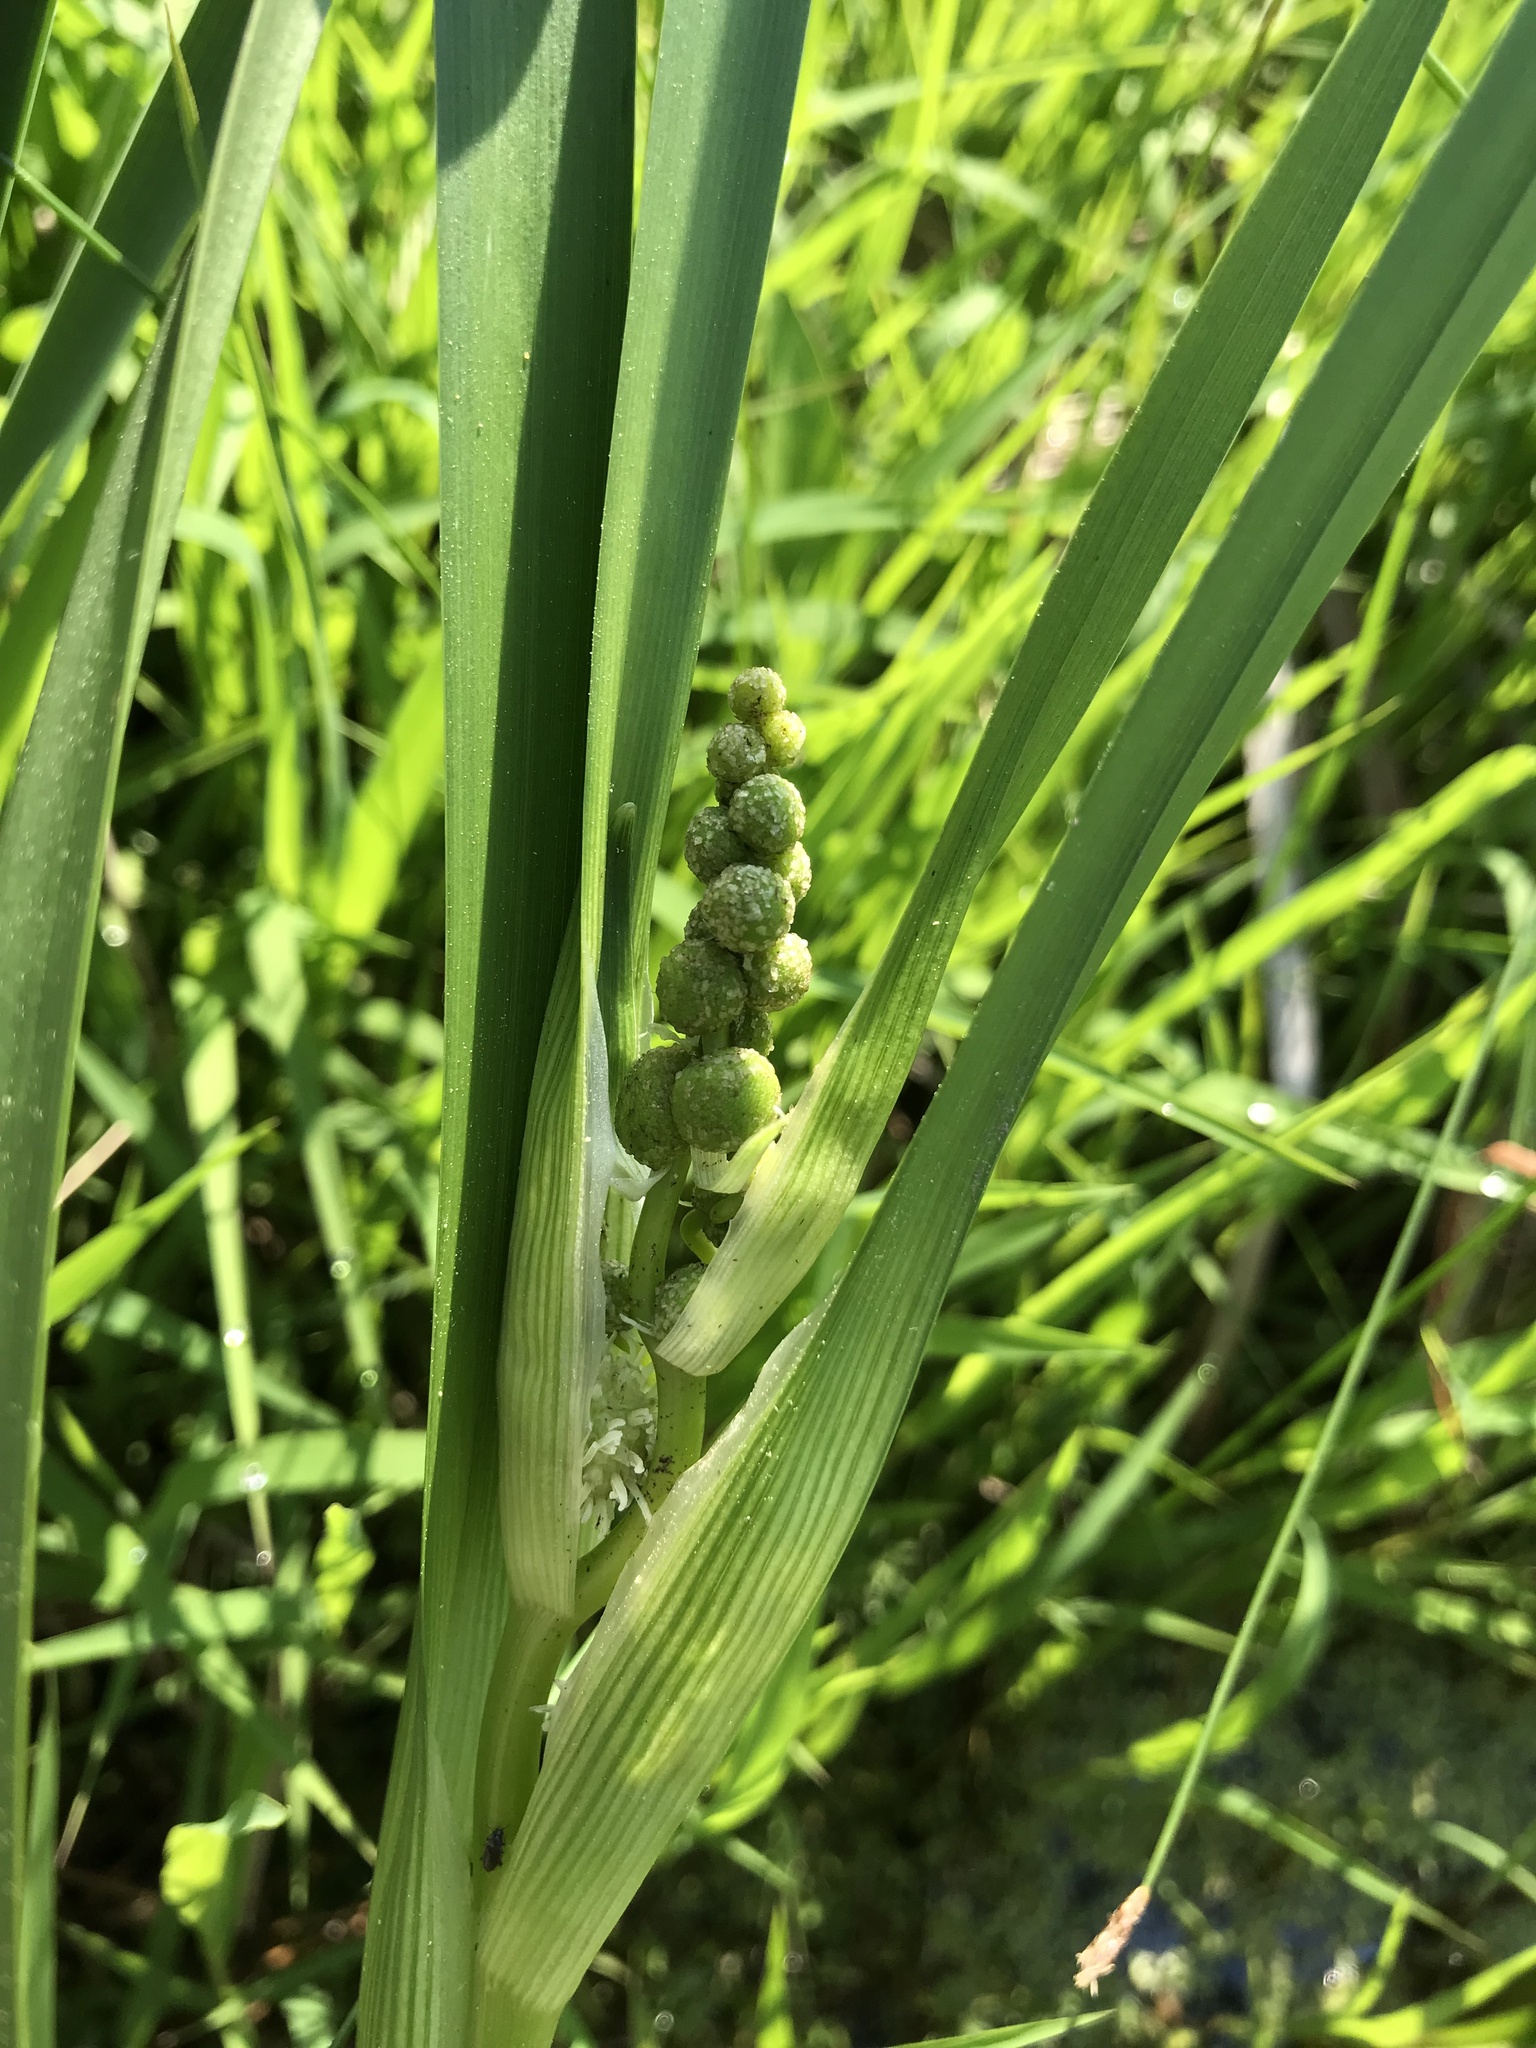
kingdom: Plantae
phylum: Tracheophyta
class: Liliopsida
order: Poales
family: Typhaceae
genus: Sparganium
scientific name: Sparganium eurycarpum
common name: Broad-fruited burreed
